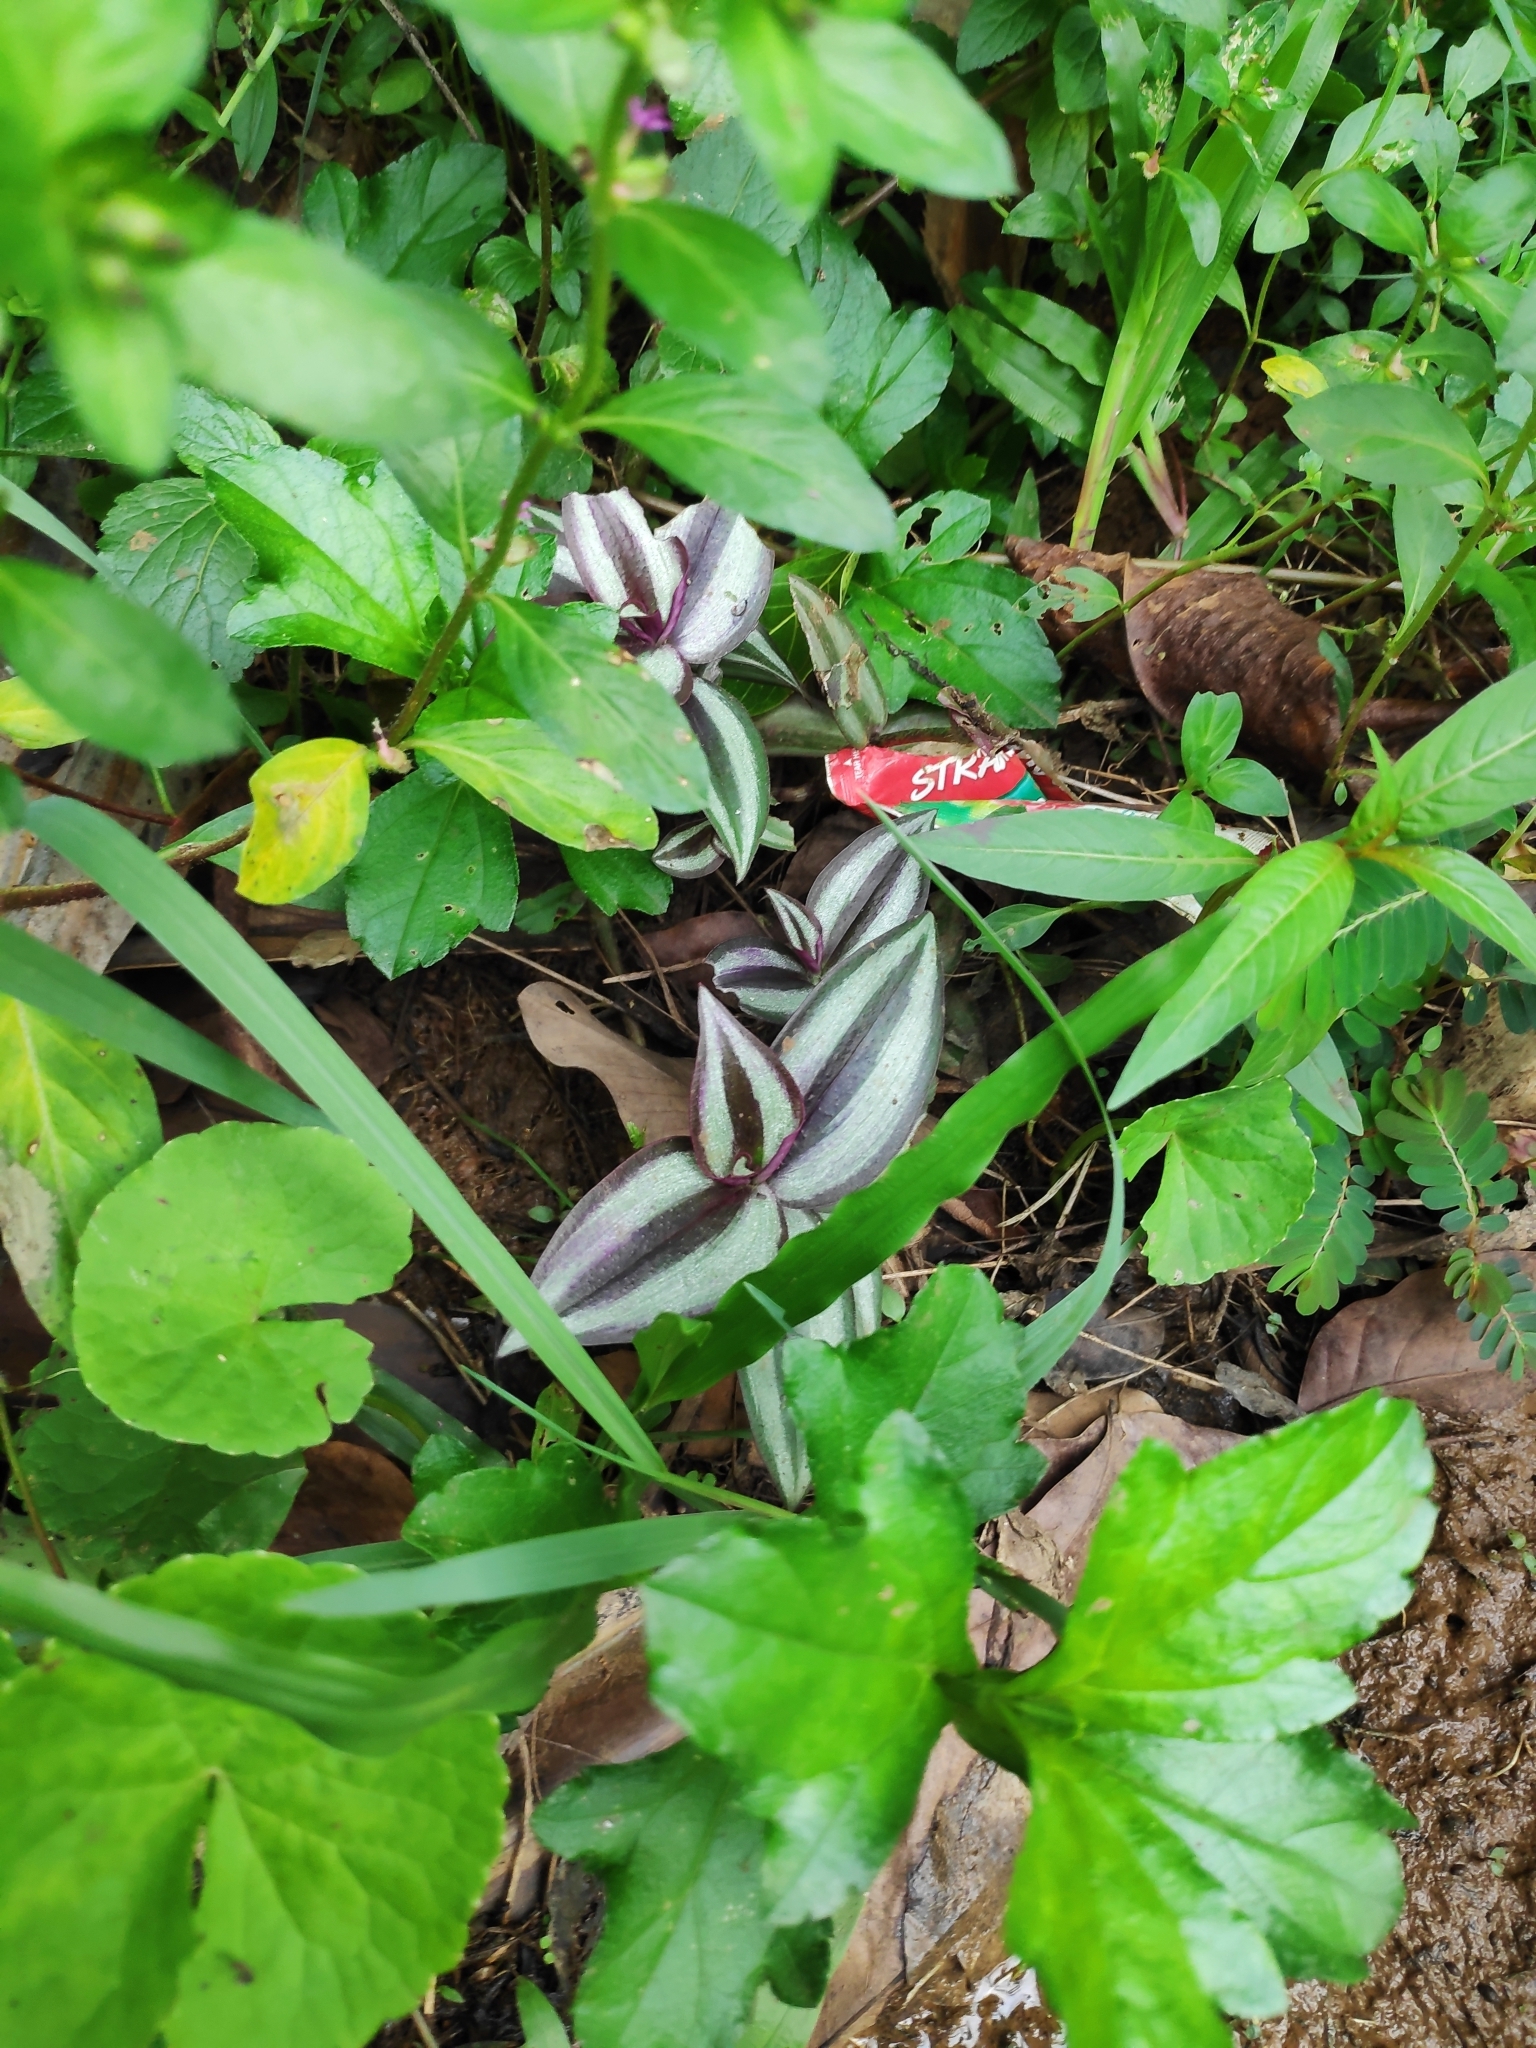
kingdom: Plantae
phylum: Tracheophyta
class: Liliopsida
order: Commelinales
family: Commelinaceae
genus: Tradescantia
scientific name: Tradescantia zebrina
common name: Inchplant
